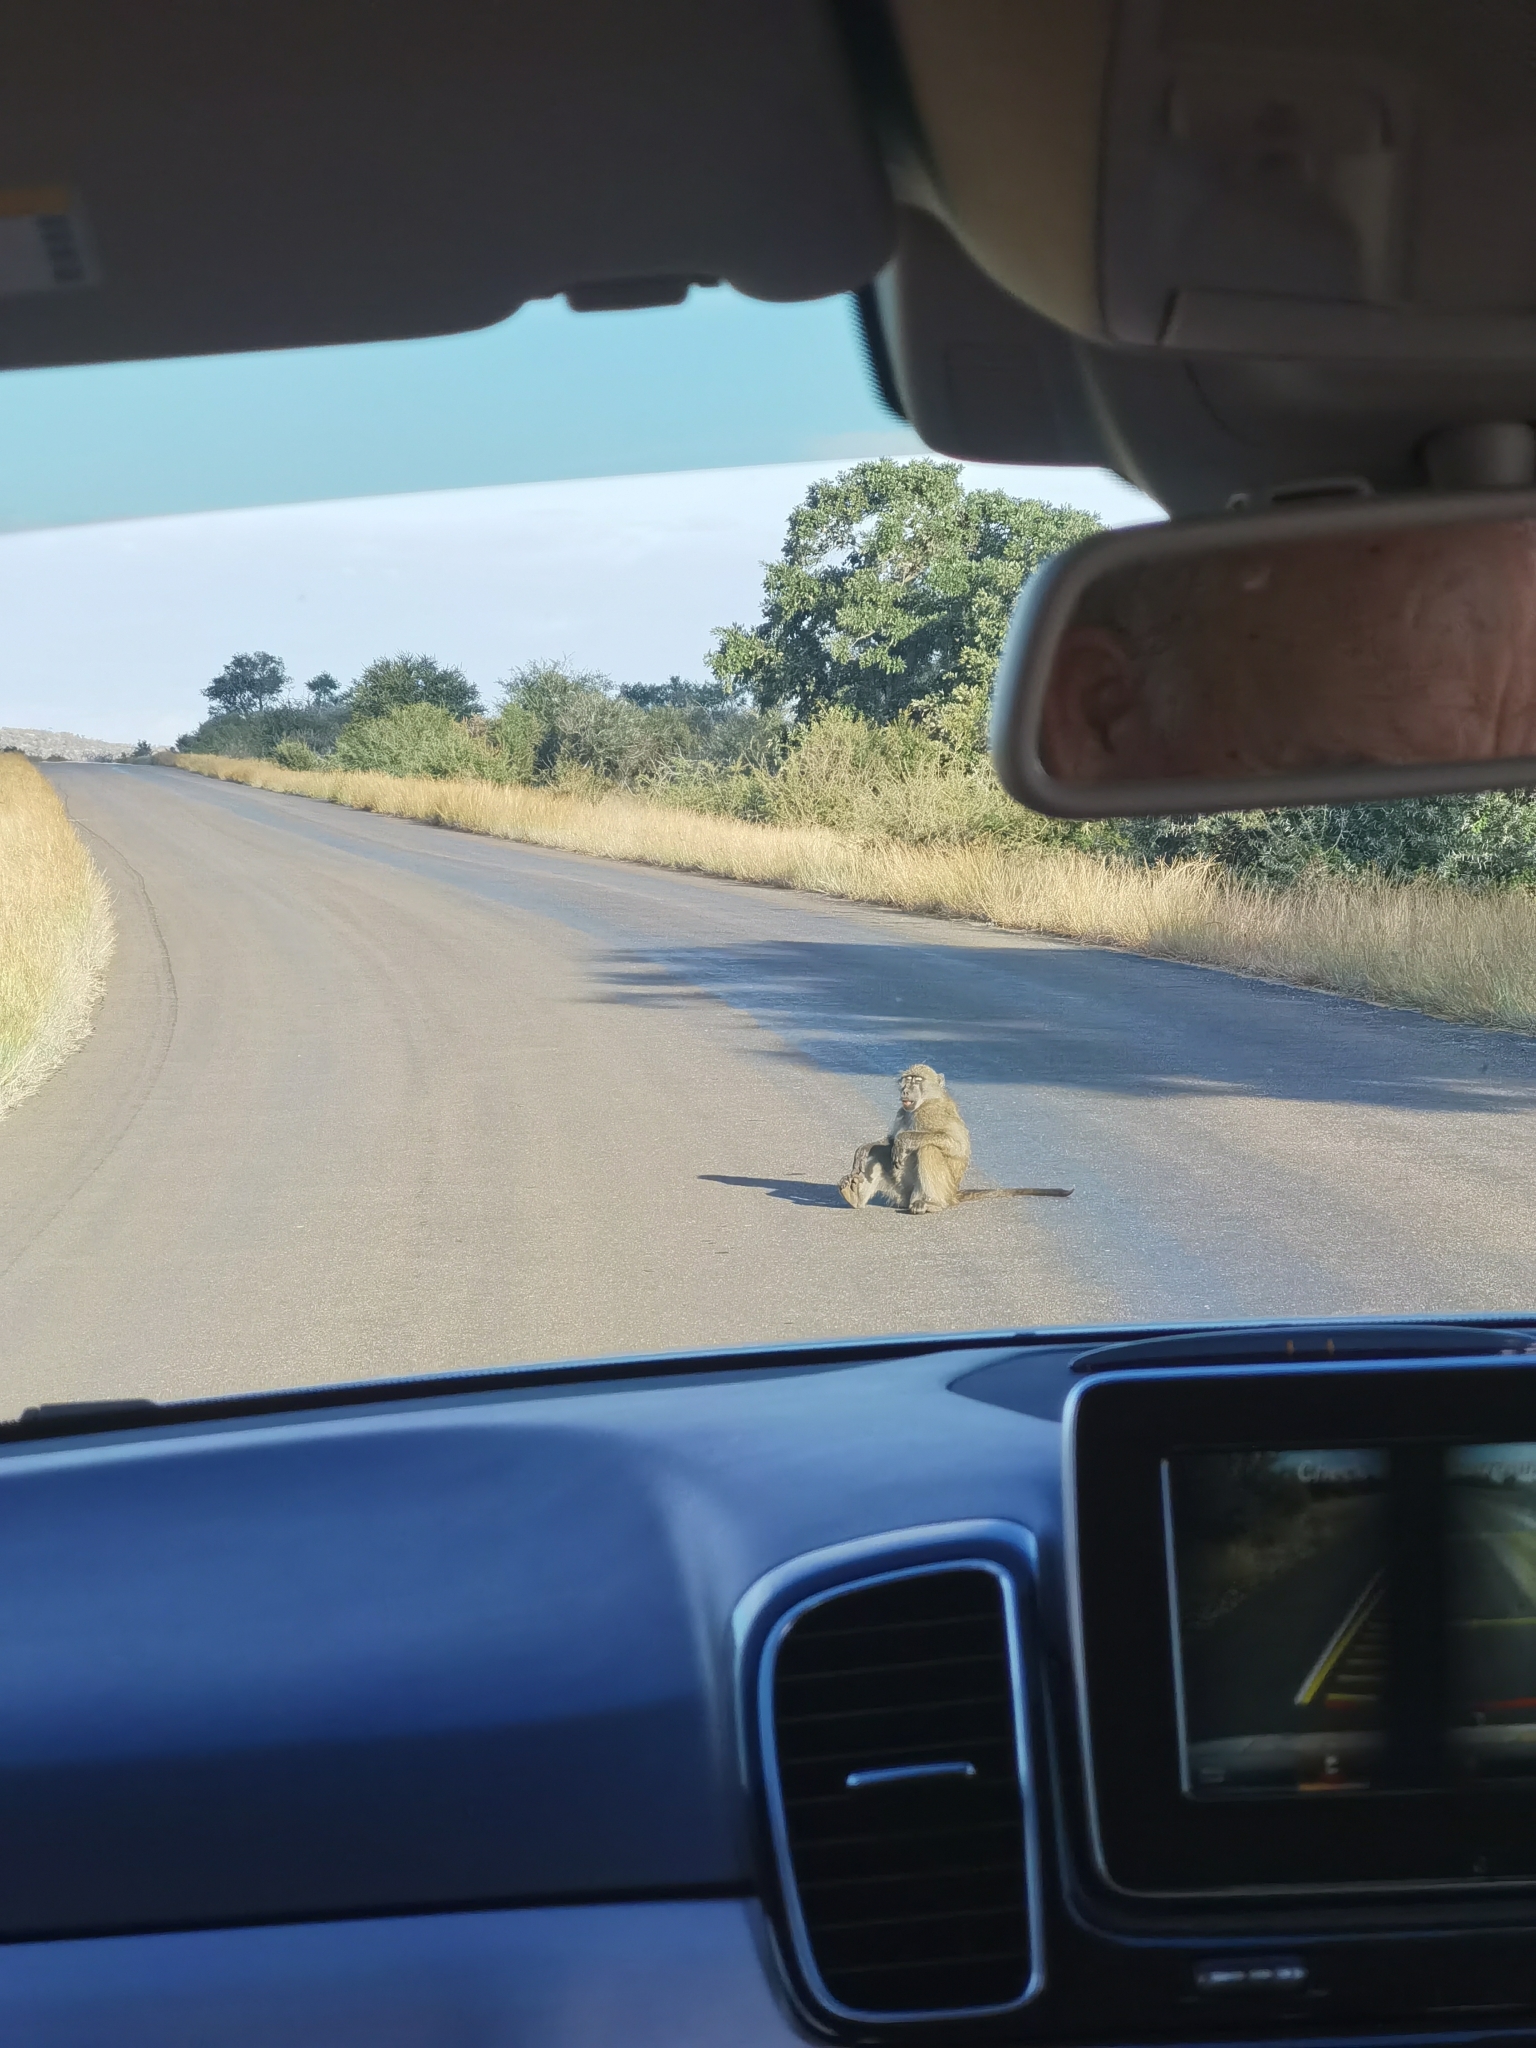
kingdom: Animalia
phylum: Chordata
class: Mammalia
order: Primates
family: Cercopithecidae
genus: Papio
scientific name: Papio ursinus
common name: Chacma baboon
